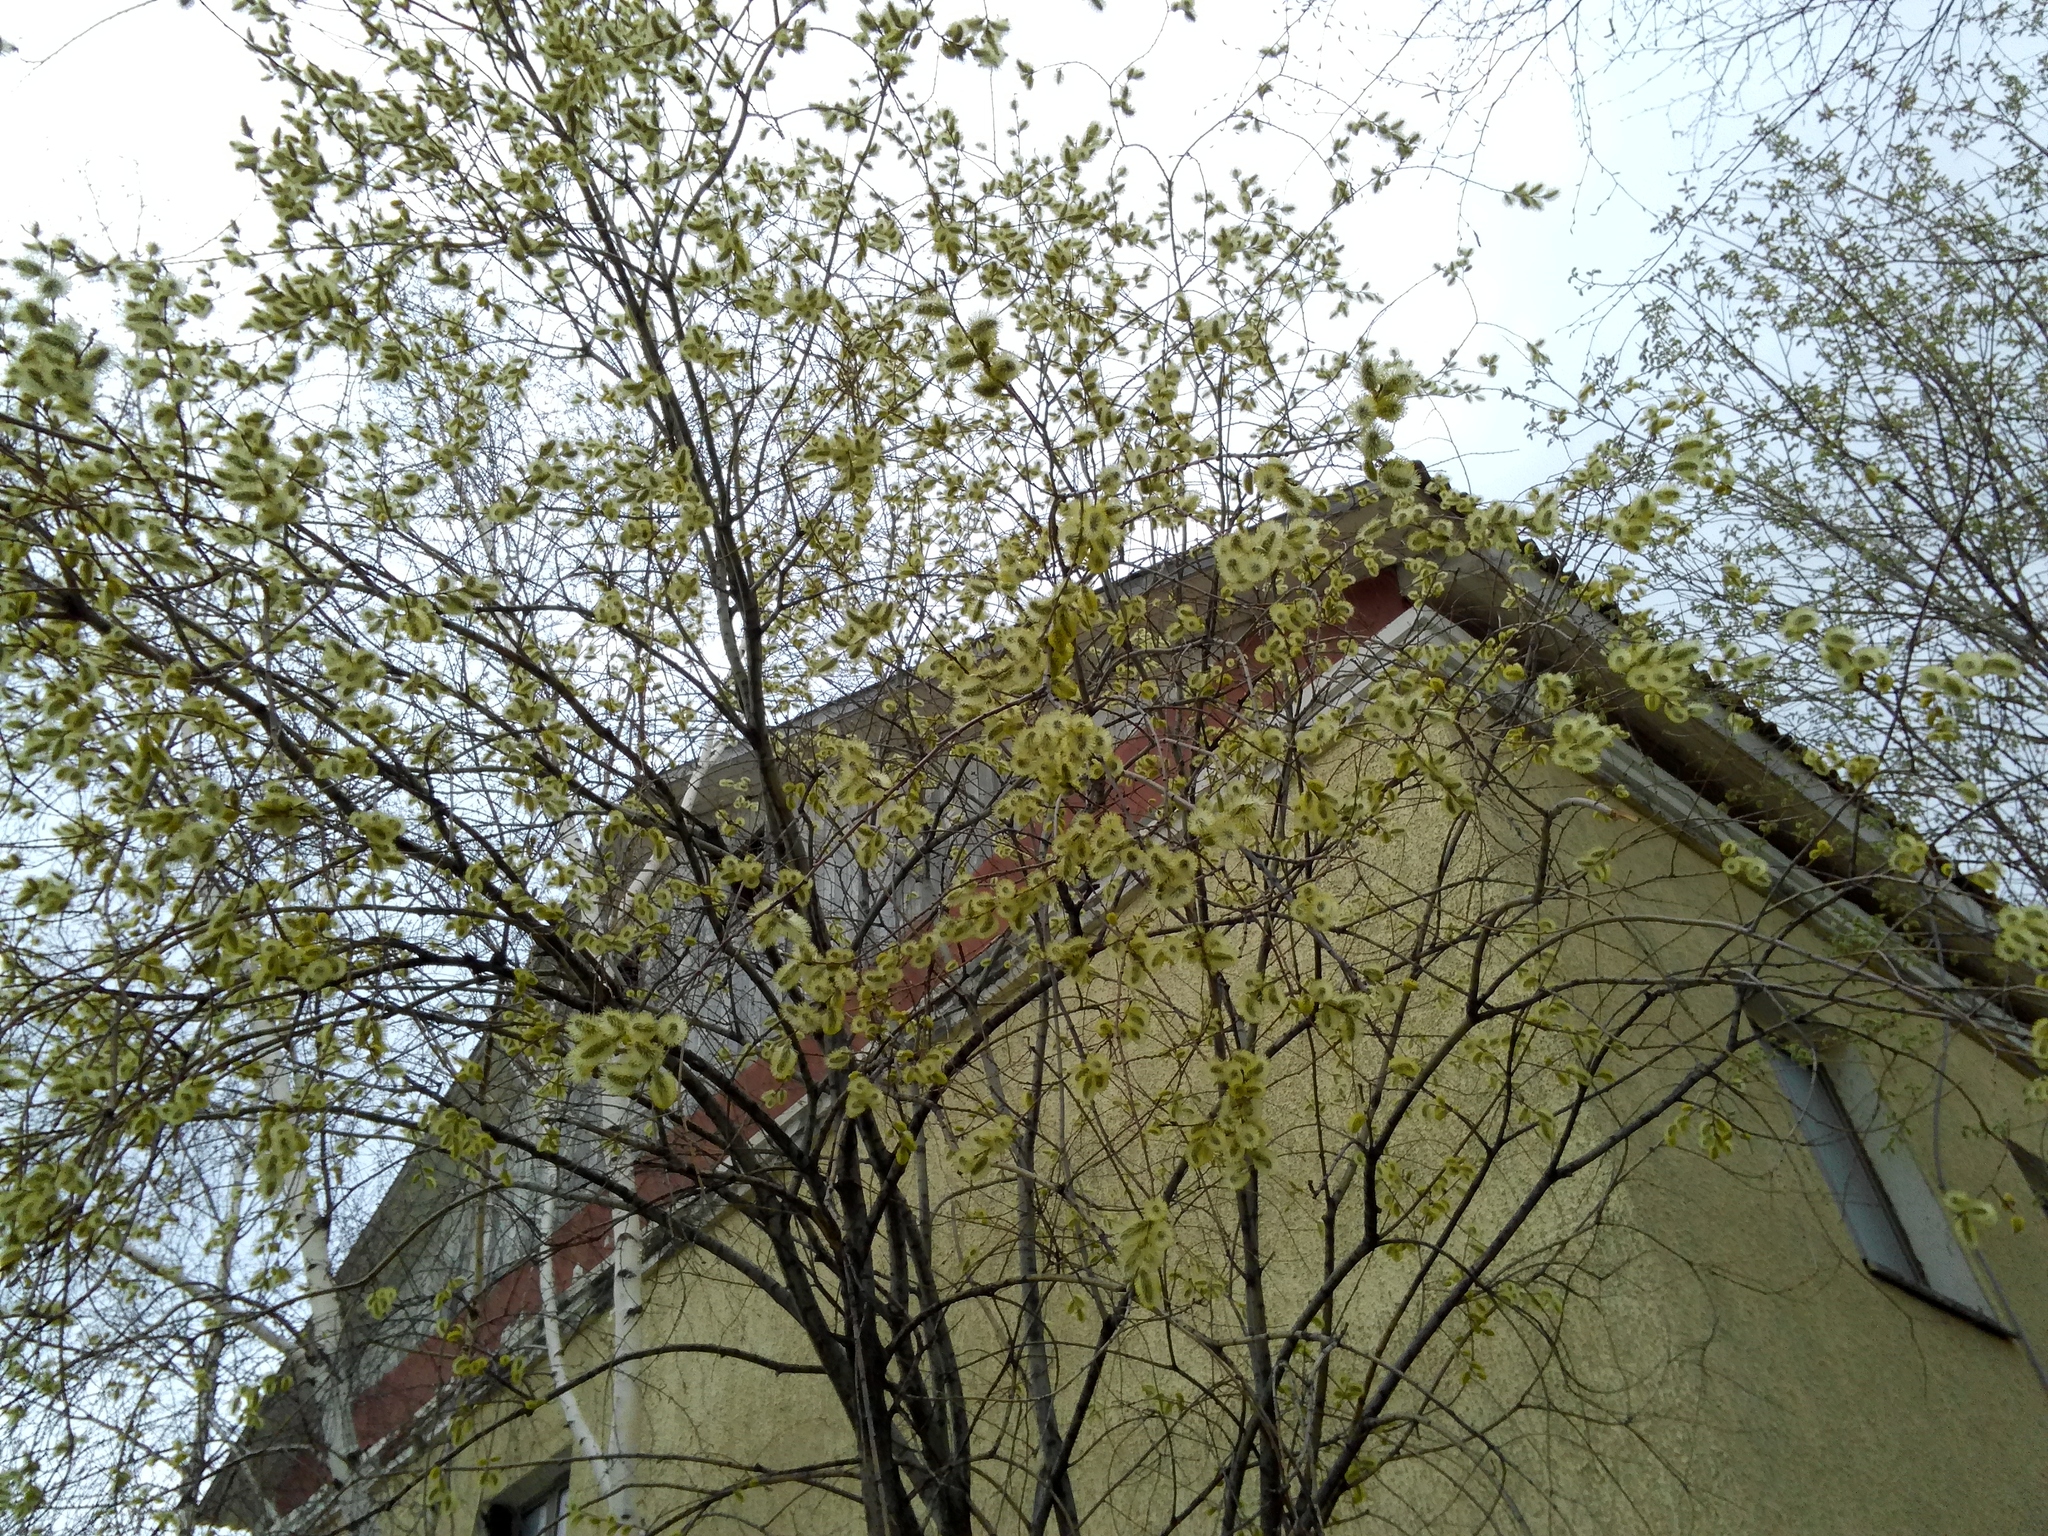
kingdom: Plantae
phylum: Tracheophyta
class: Magnoliopsida
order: Malpighiales
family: Salicaceae
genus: Salix
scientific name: Salix caprea
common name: Goat willow
